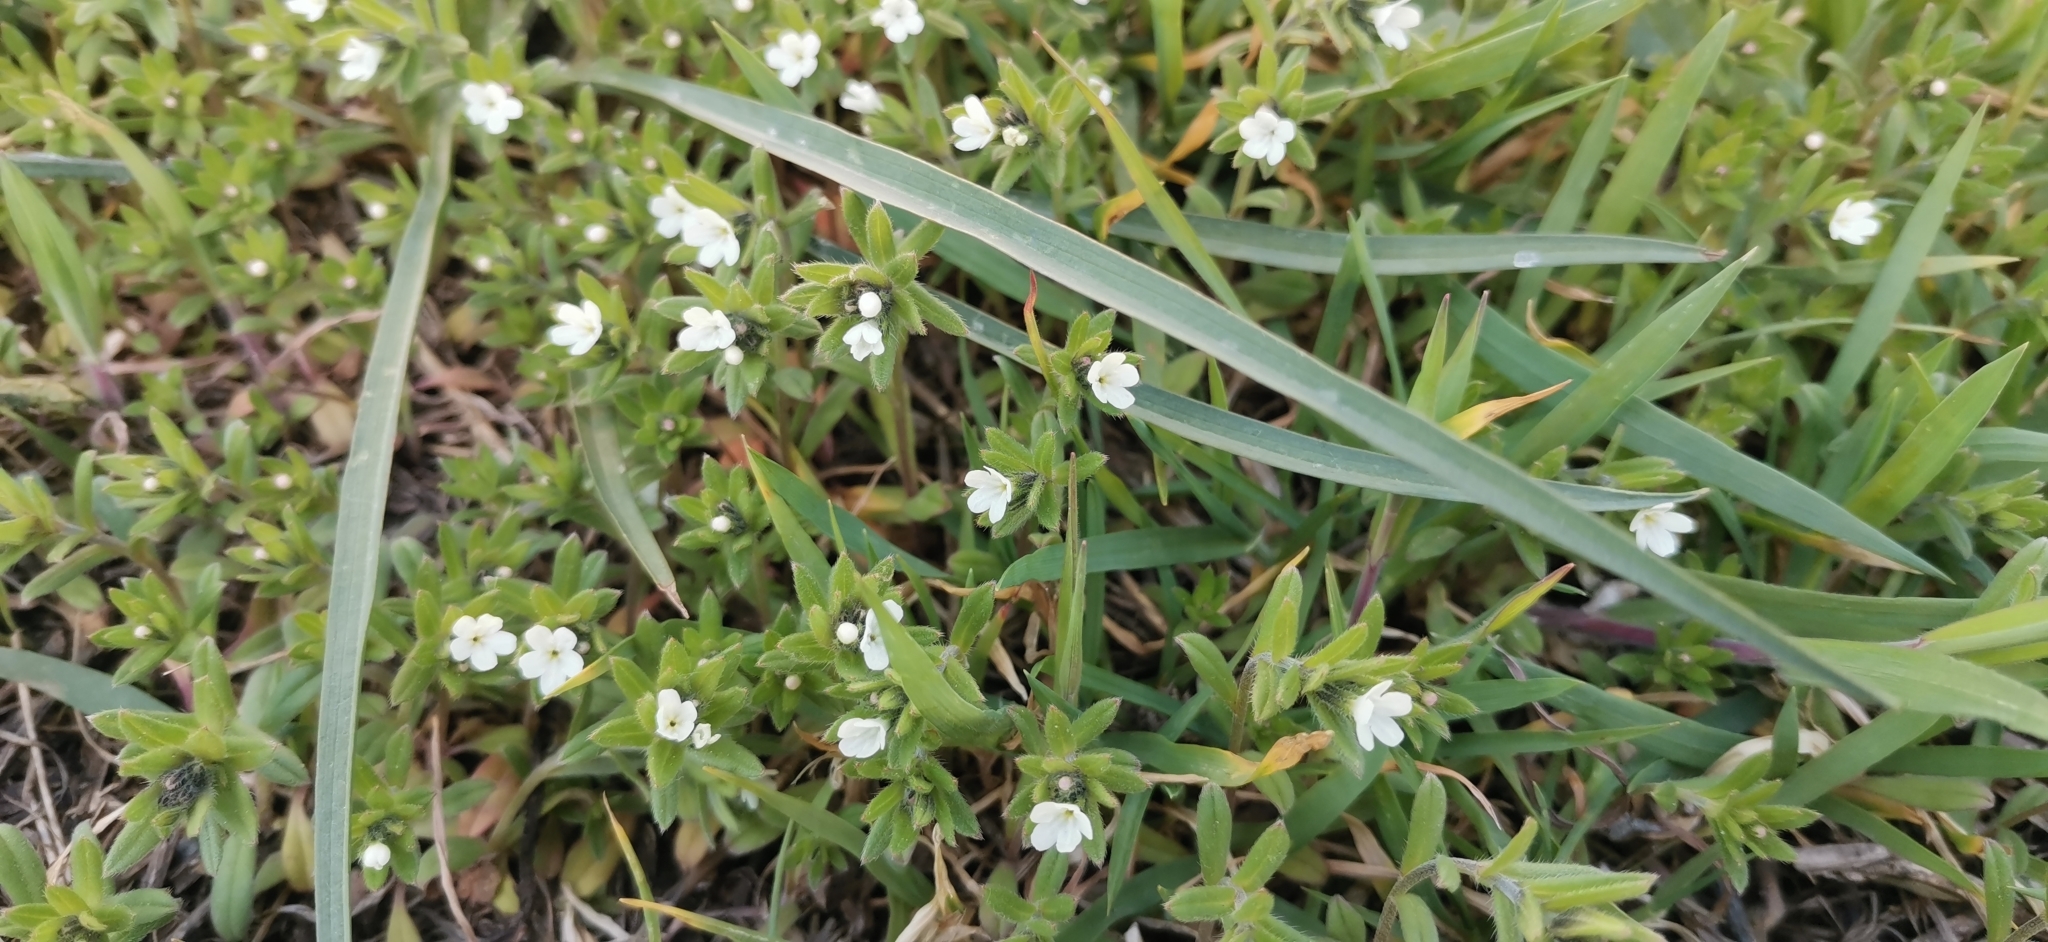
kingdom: Plantae
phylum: Tracheophyta
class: Magnoliopsida
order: Boraginales
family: Boraginaceae
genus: Buglossoides
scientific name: Buglossoides arvensis
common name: Corn gromwell
